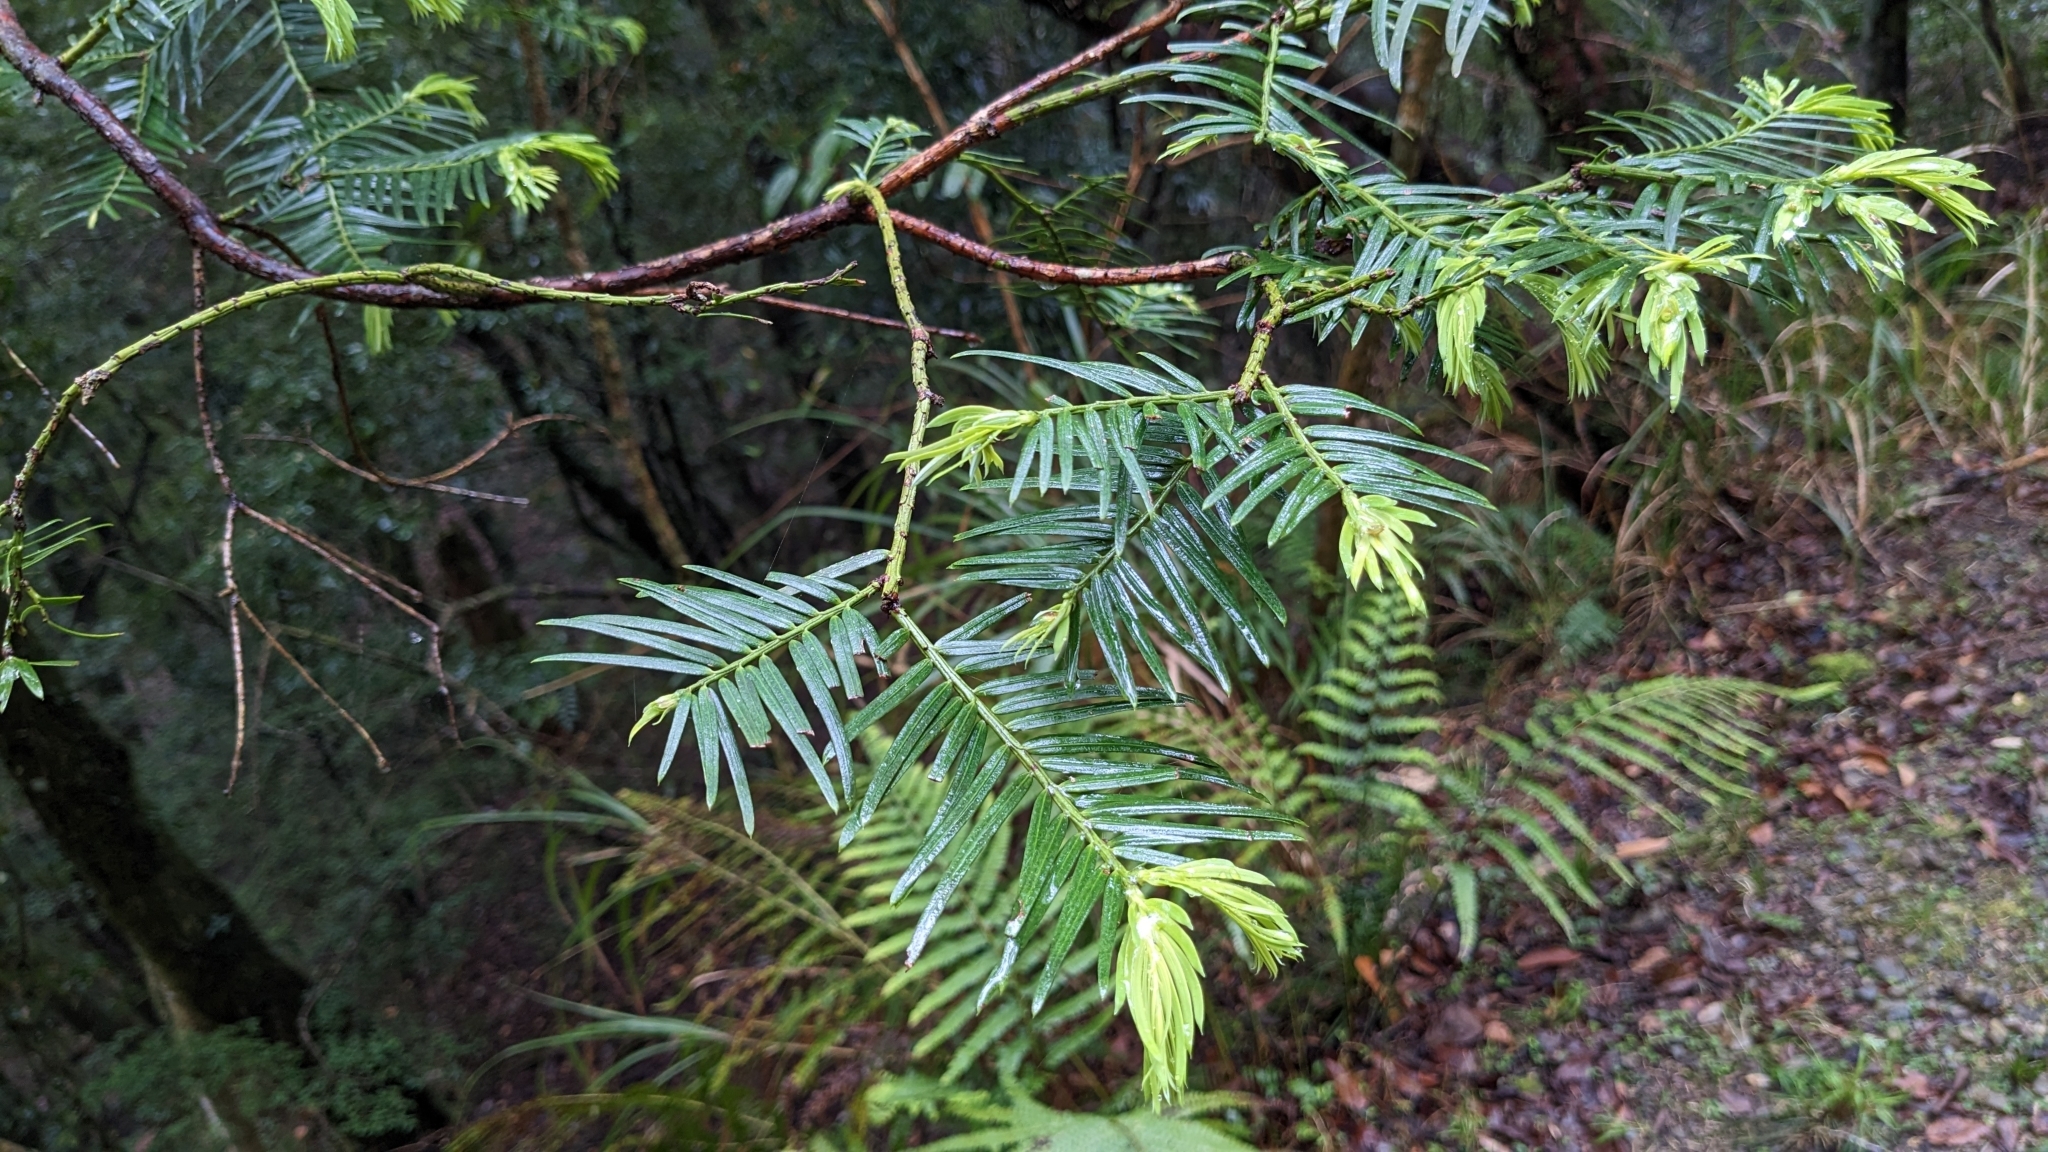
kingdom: Plantae
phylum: Tracheophyta
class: Pinopsida
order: Pinales
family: Cephalotaxaceae
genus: Cephalotaxus
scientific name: Cephalotaxus harringtonii
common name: Harrington's plum yew
